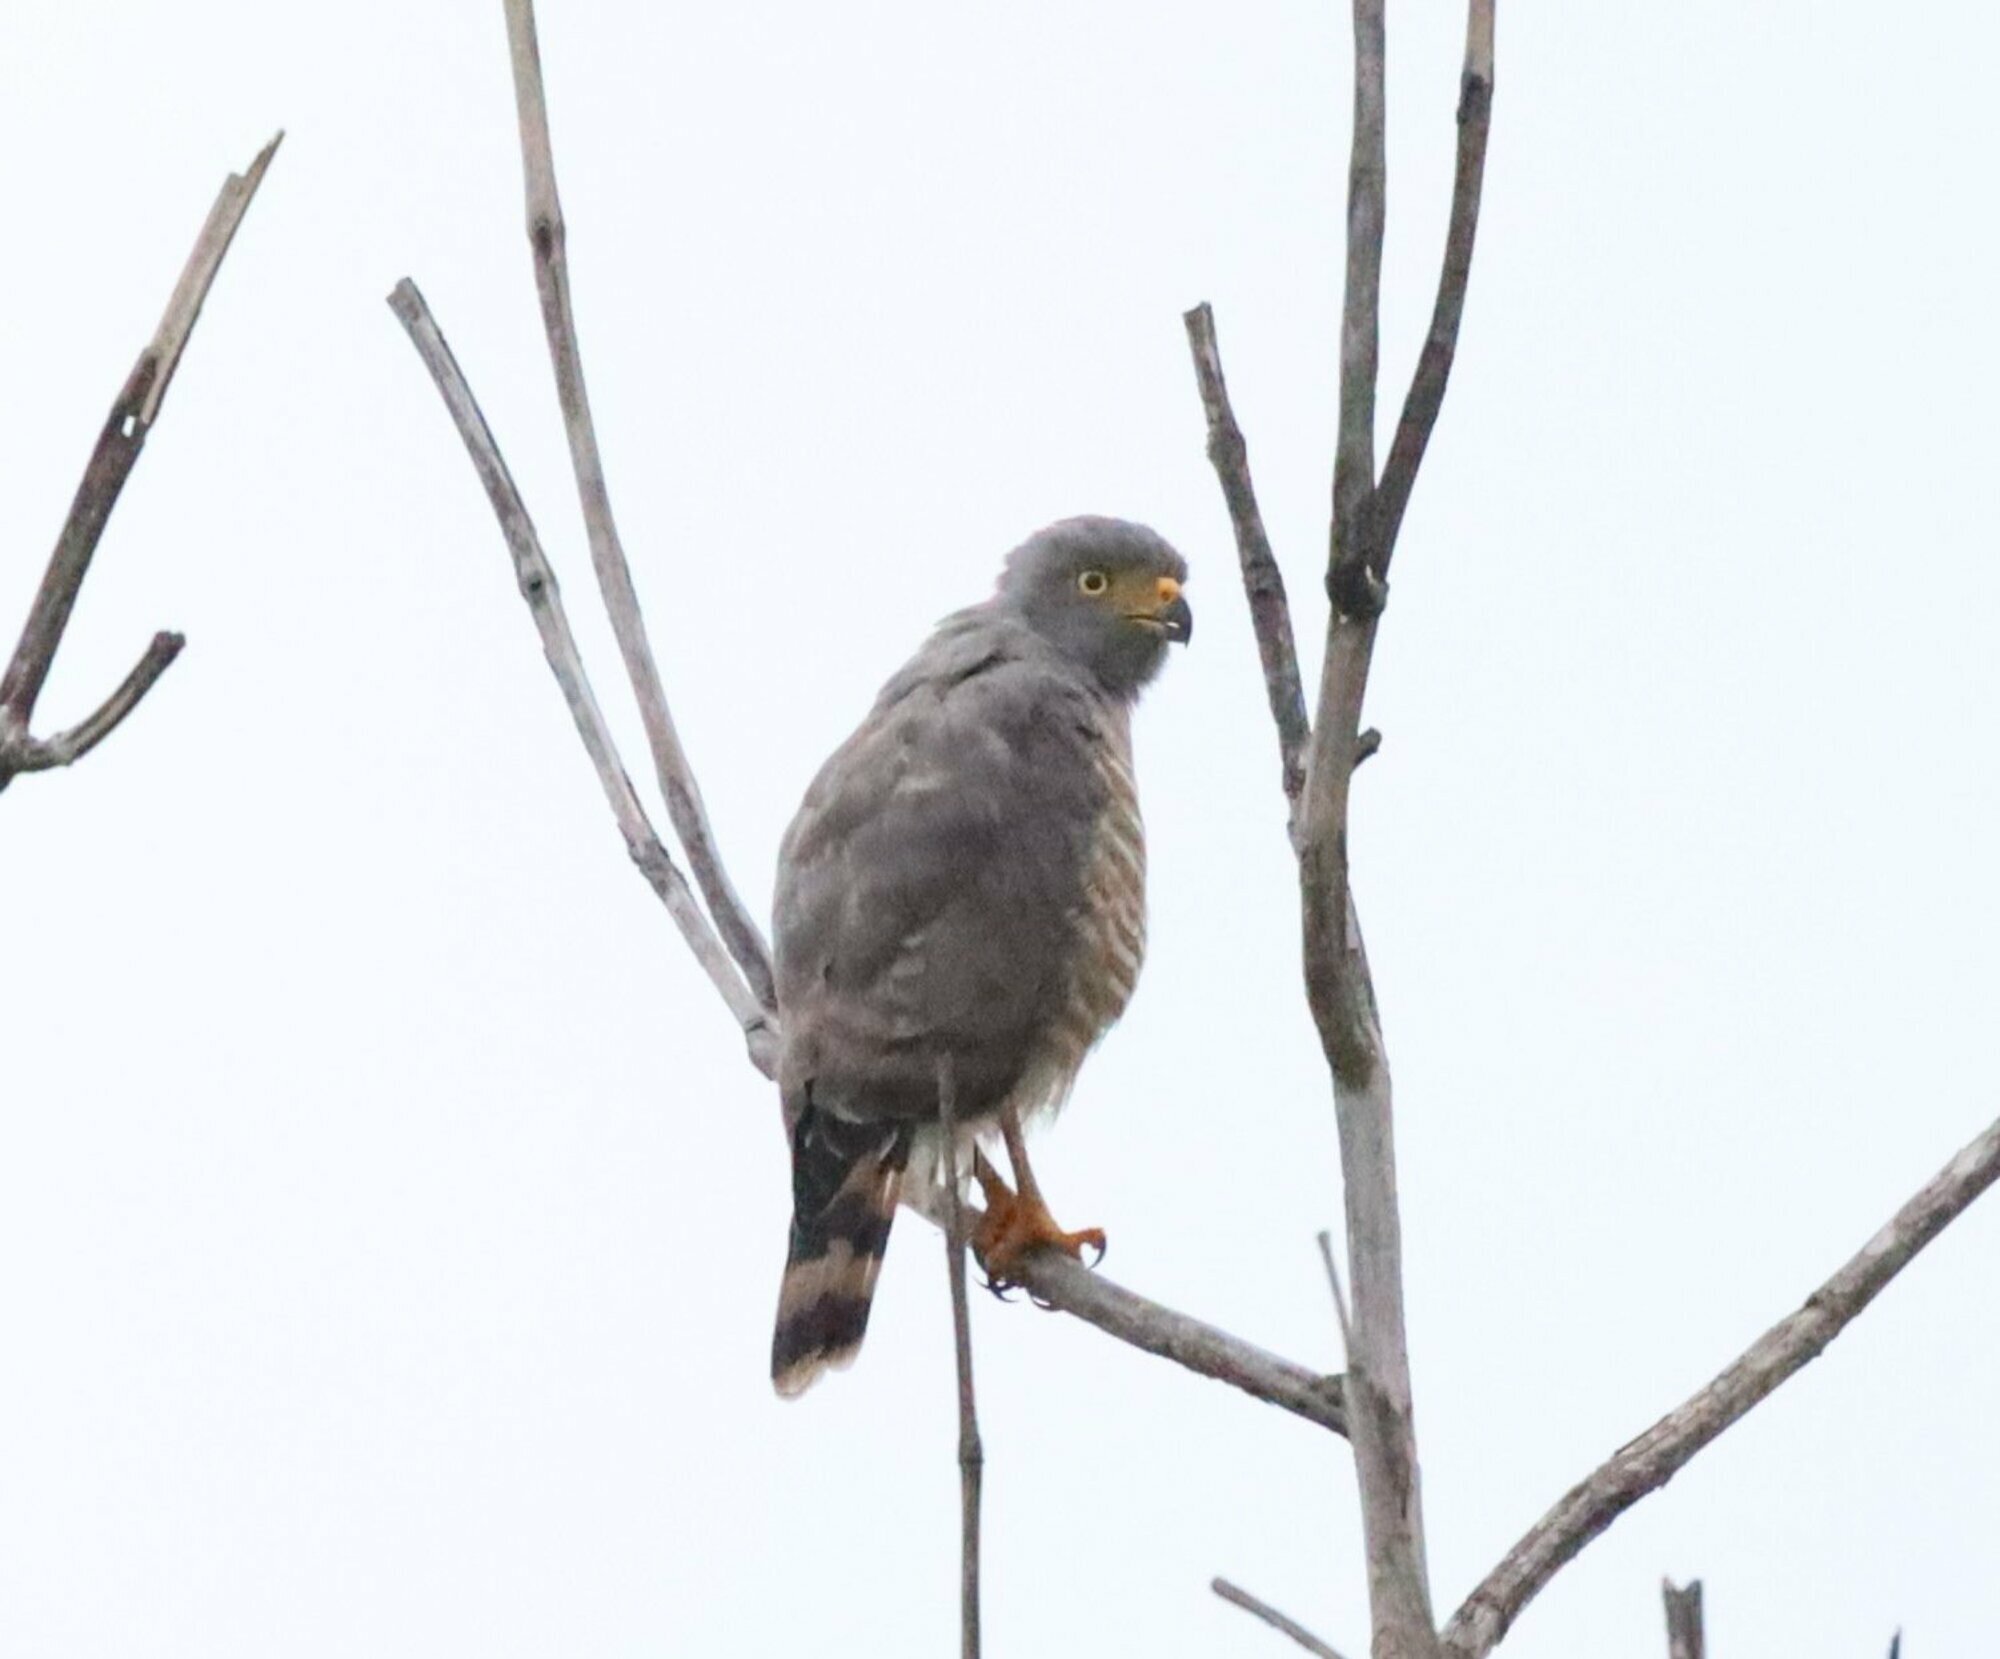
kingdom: Animalia
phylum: Chordata
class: Aves
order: Accipitriformes
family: Accipitridae
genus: Rupornis
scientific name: Rupornis magnirostris
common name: Roadside hawk
